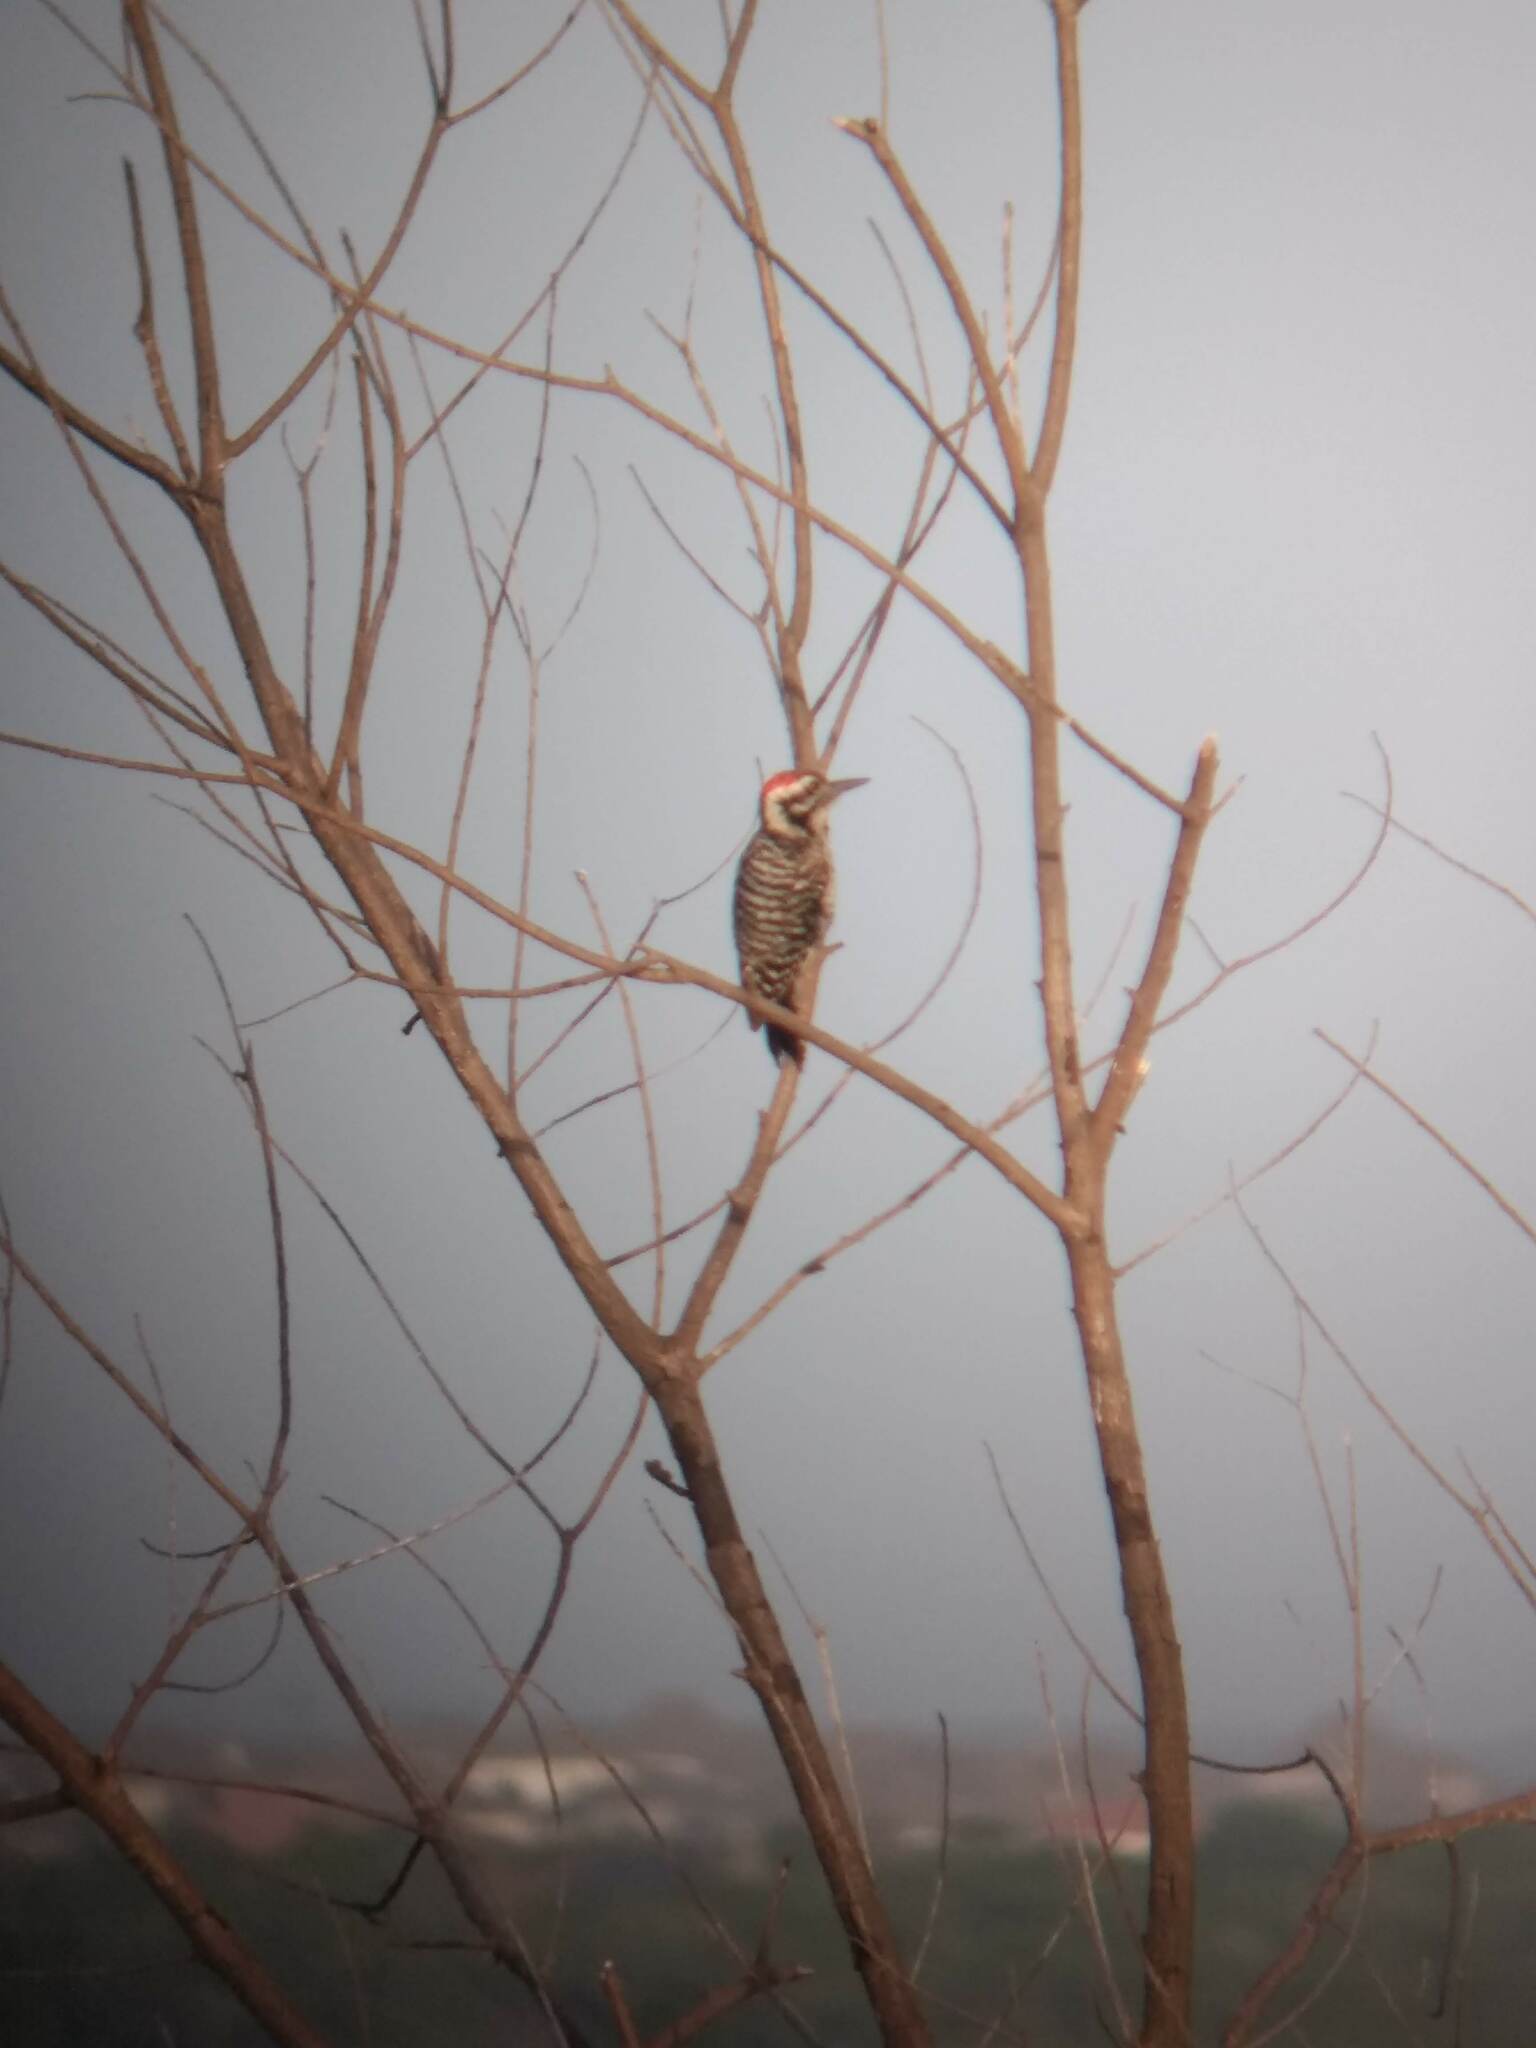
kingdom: Animalia
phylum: Chordata
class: Aves
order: Piciformes
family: Picidae
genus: Dryobates
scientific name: Dryobates scalaris
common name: Ladder-backed woodpecker
